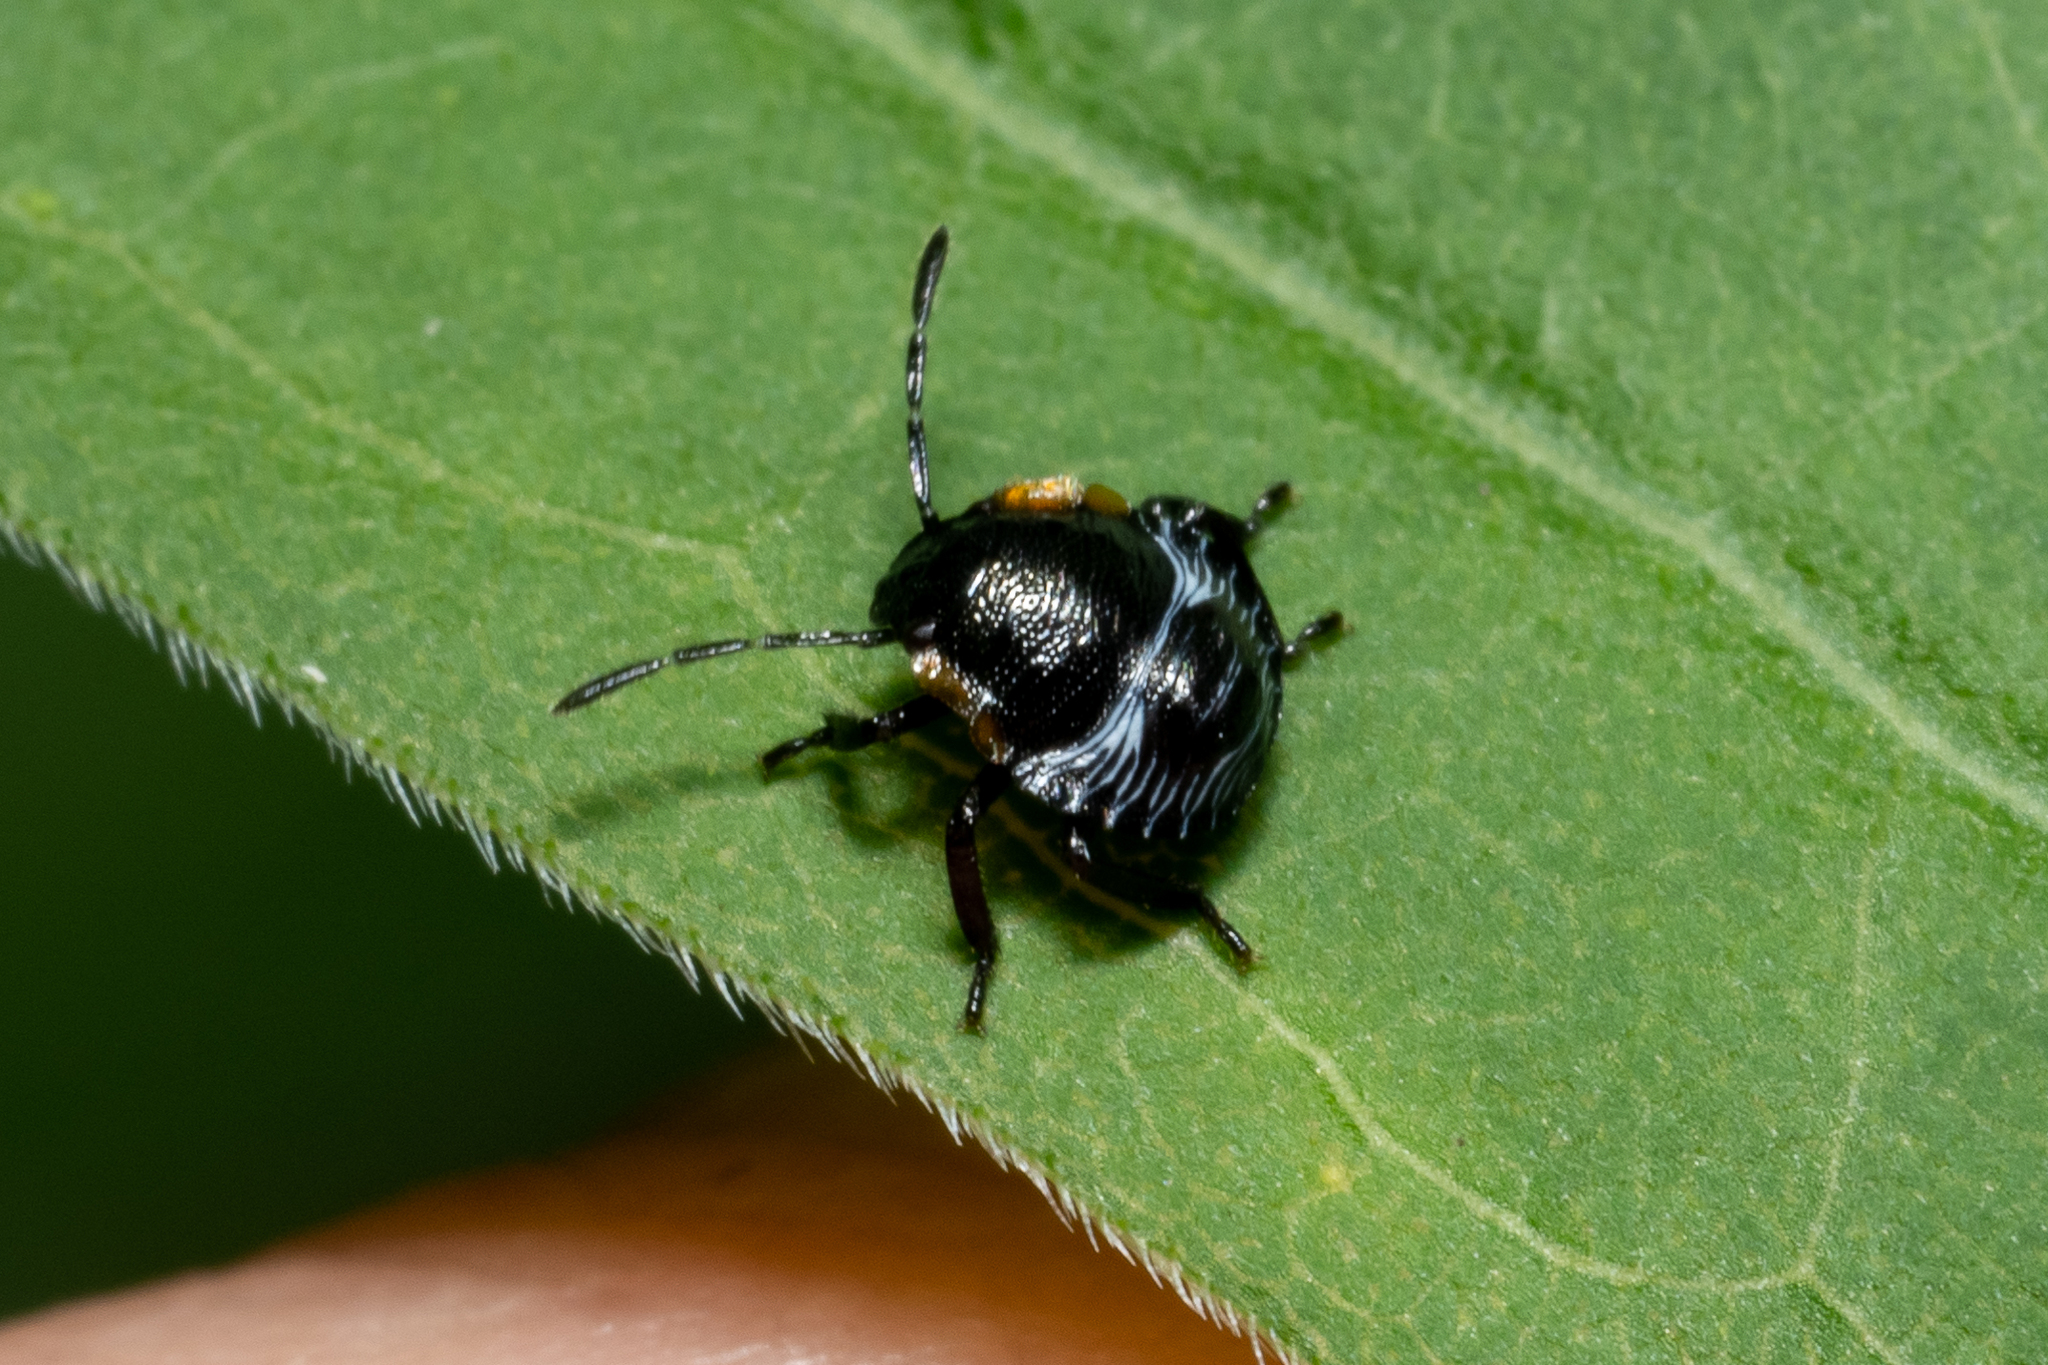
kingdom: Animalia
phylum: Arthropoda
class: Insecta
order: Hemiptera
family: Pentatomidae
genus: Chinavia
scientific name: Chinavia hilaris
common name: Green stink bug
